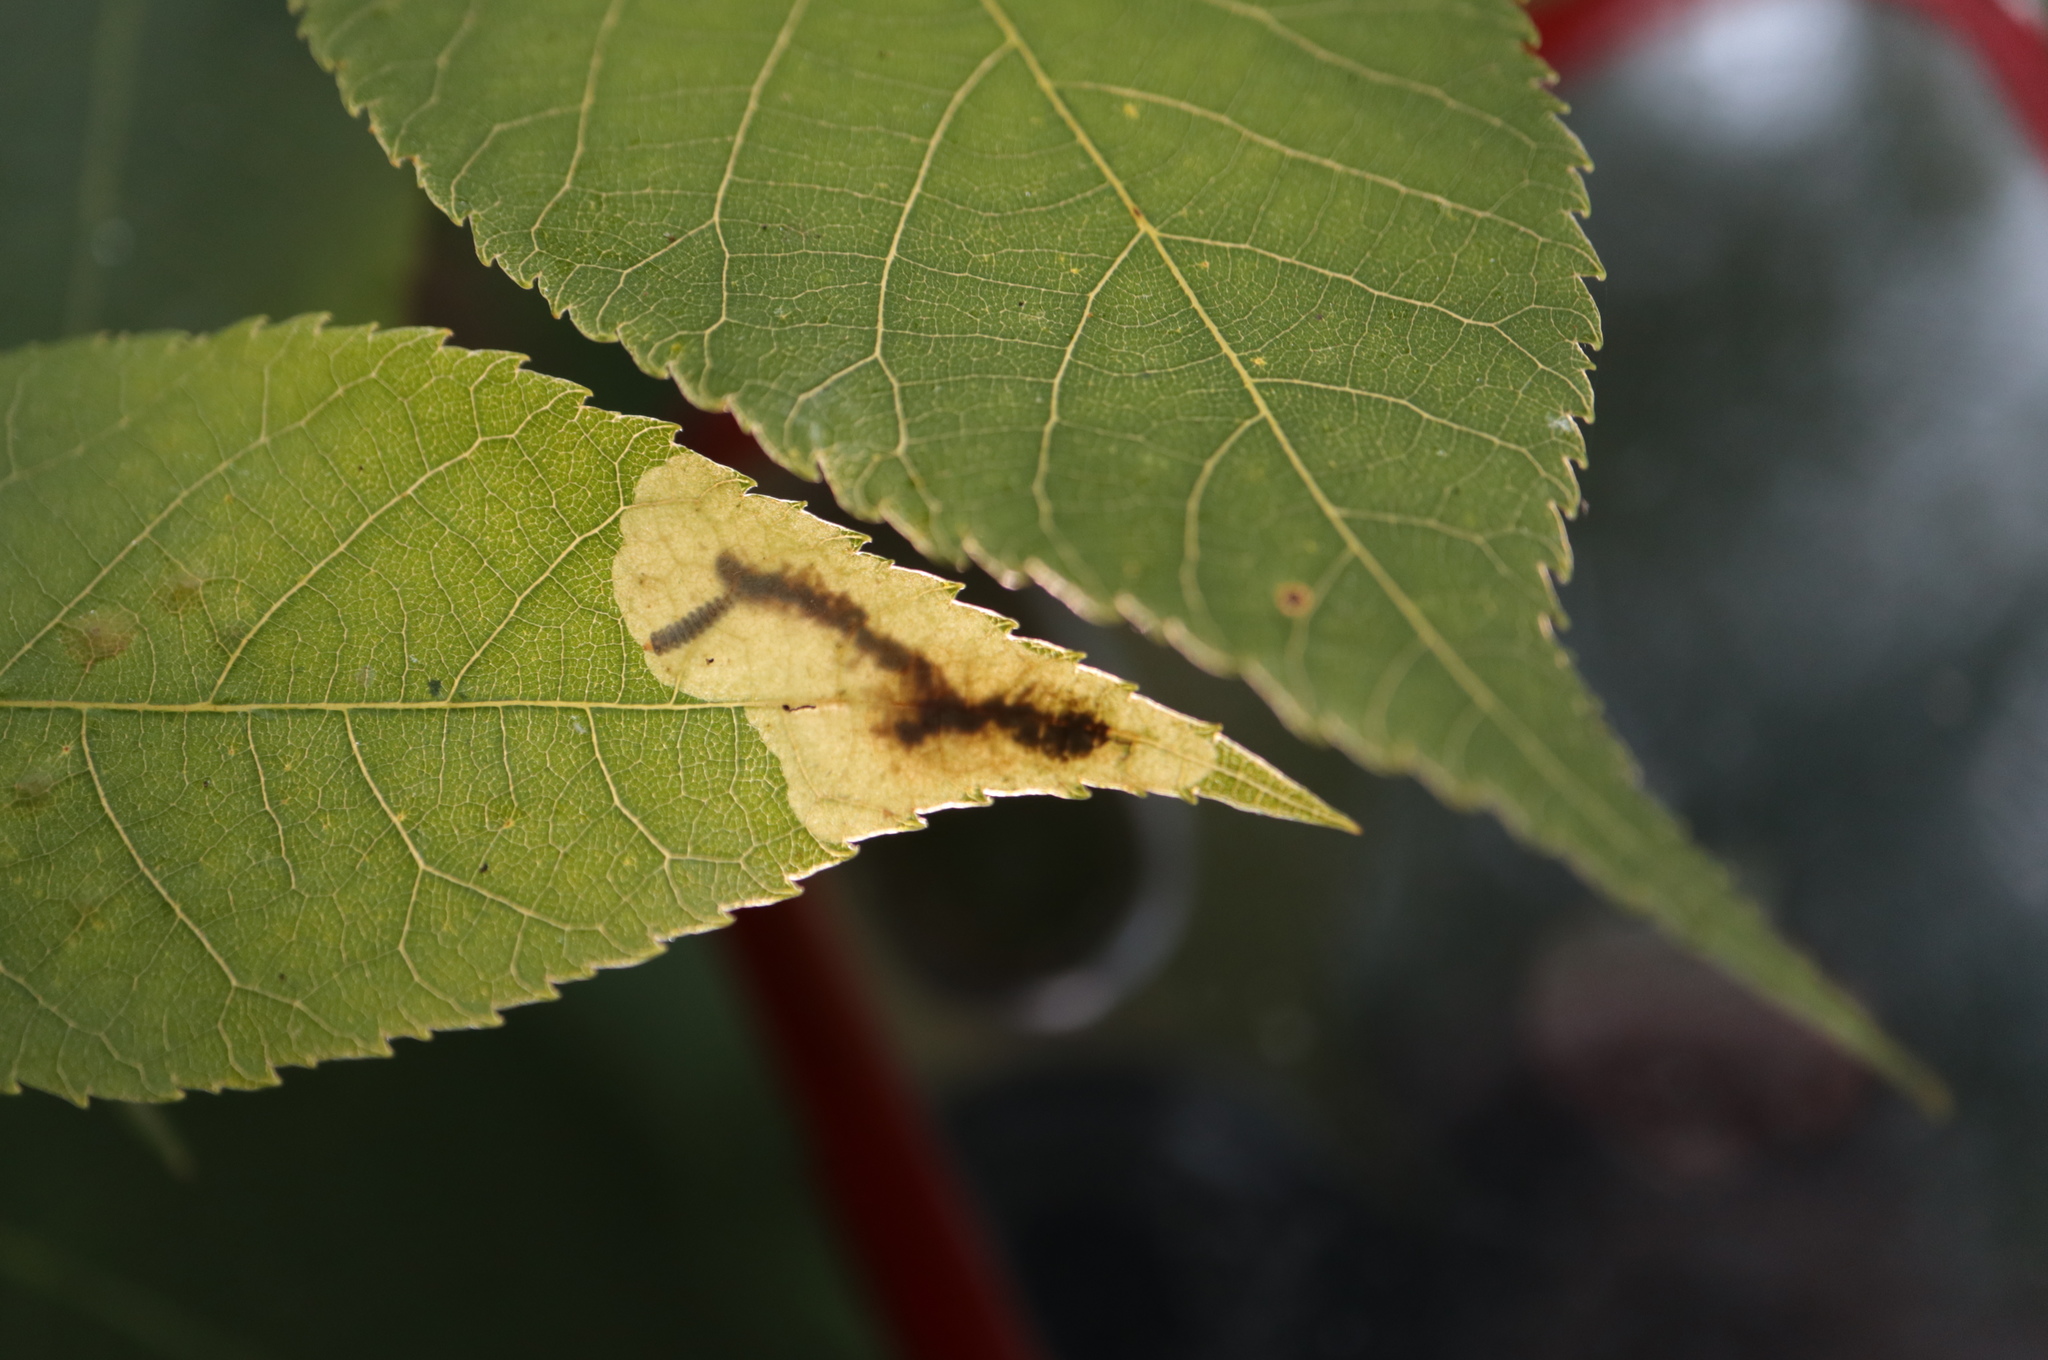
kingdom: Animalia
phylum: Arthropoda
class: Insecta
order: Lepidoptera
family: Gracillariidae
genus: Cameraria
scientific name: Cameraria caryaefoliella
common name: Pecan leafminer moth
